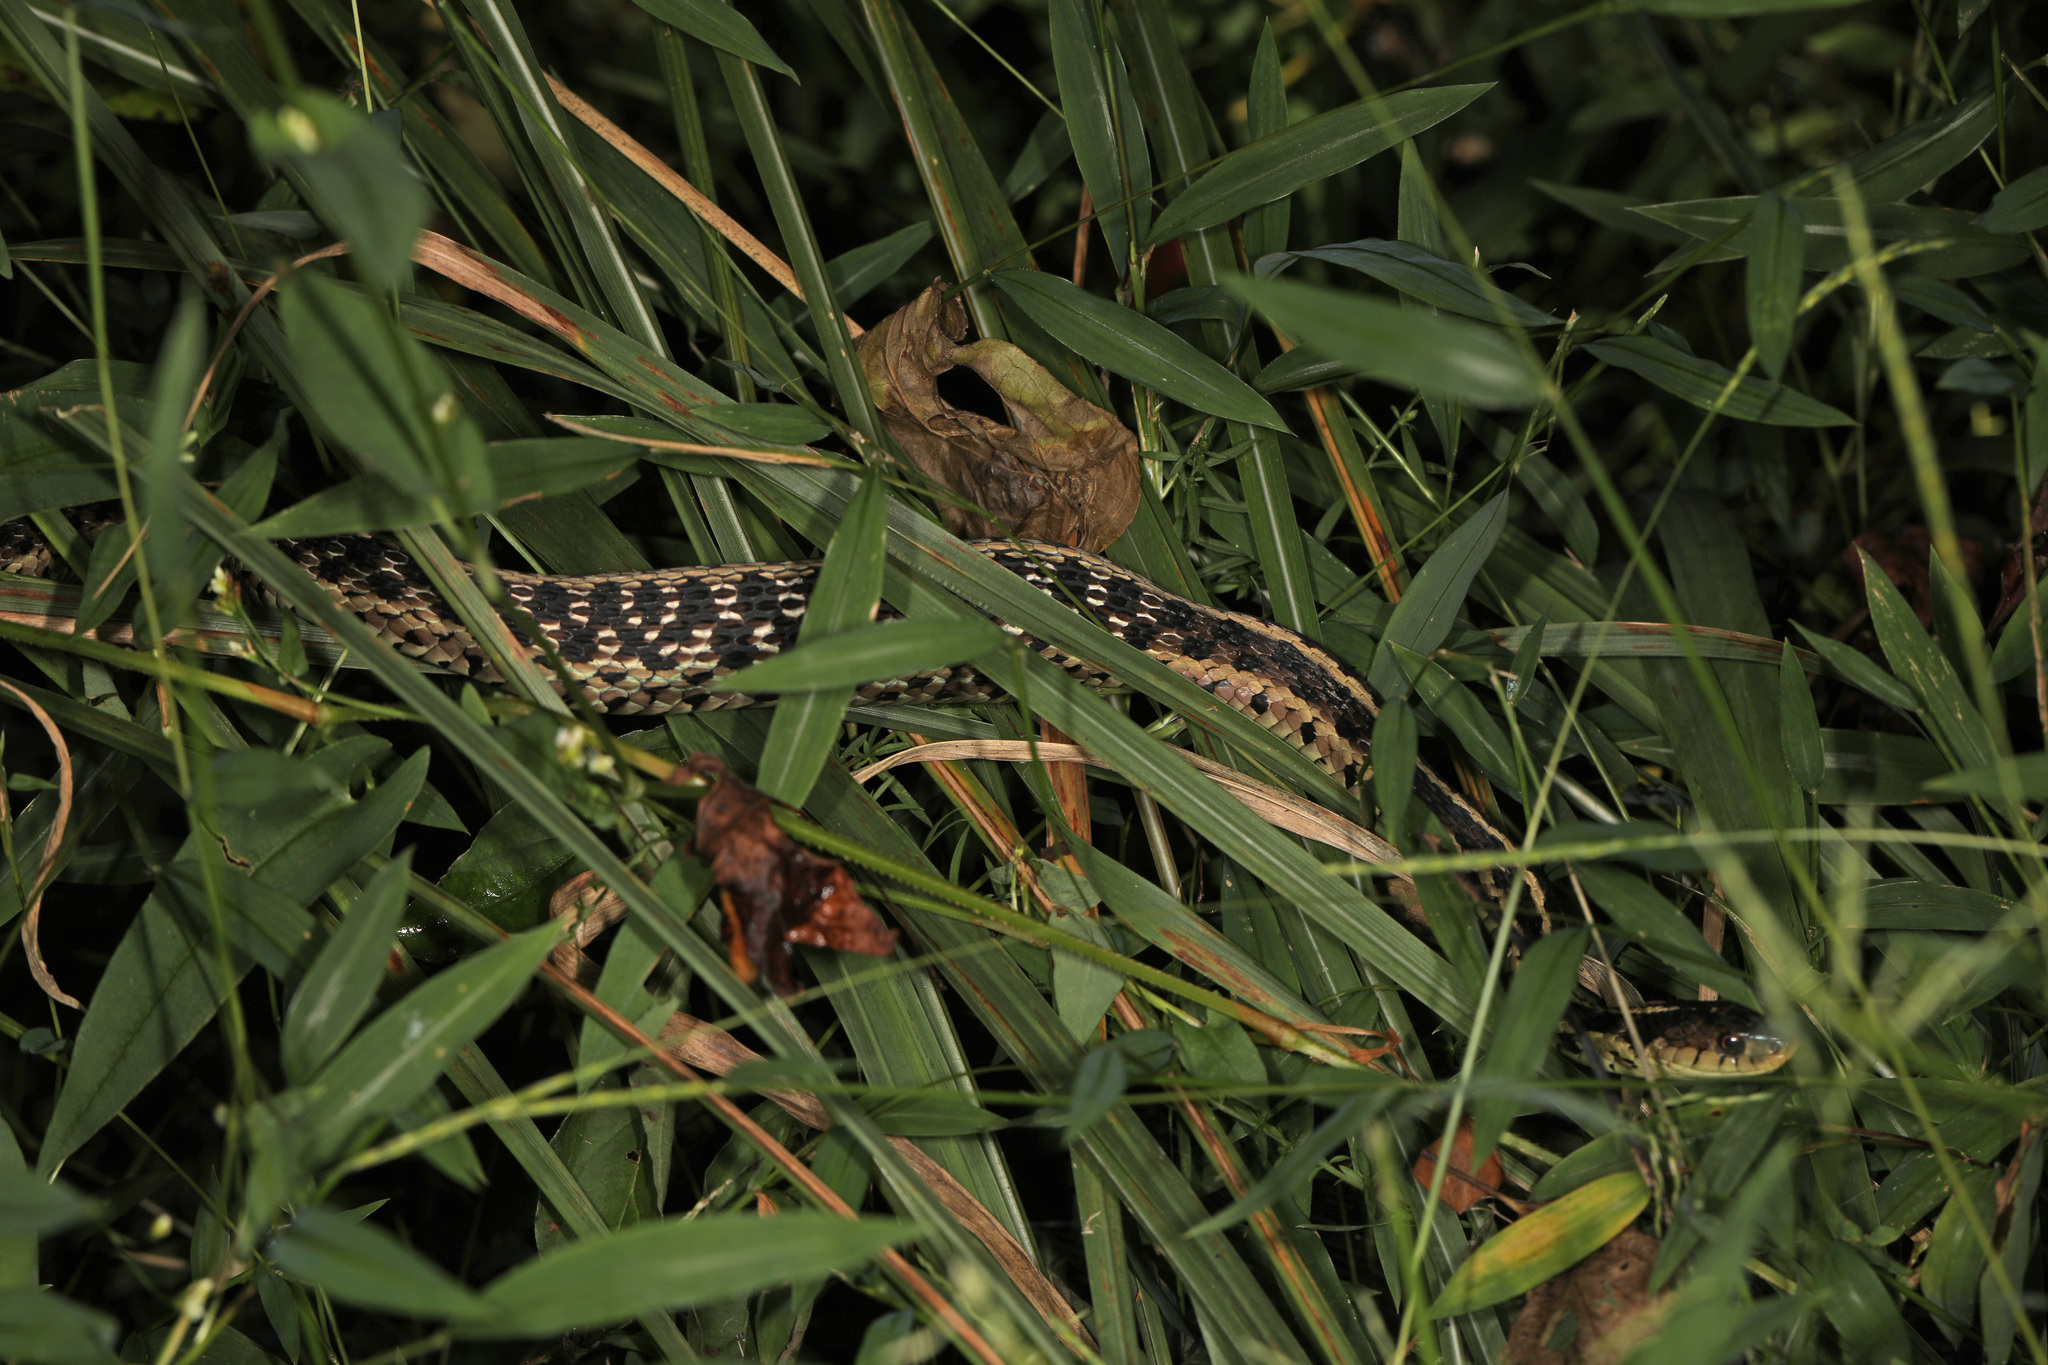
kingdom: Animalia
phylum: Chordata
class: Squamata
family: Colubridae
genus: Thamnophis
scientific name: Thamnophis sirtalis
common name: Common garter snake
